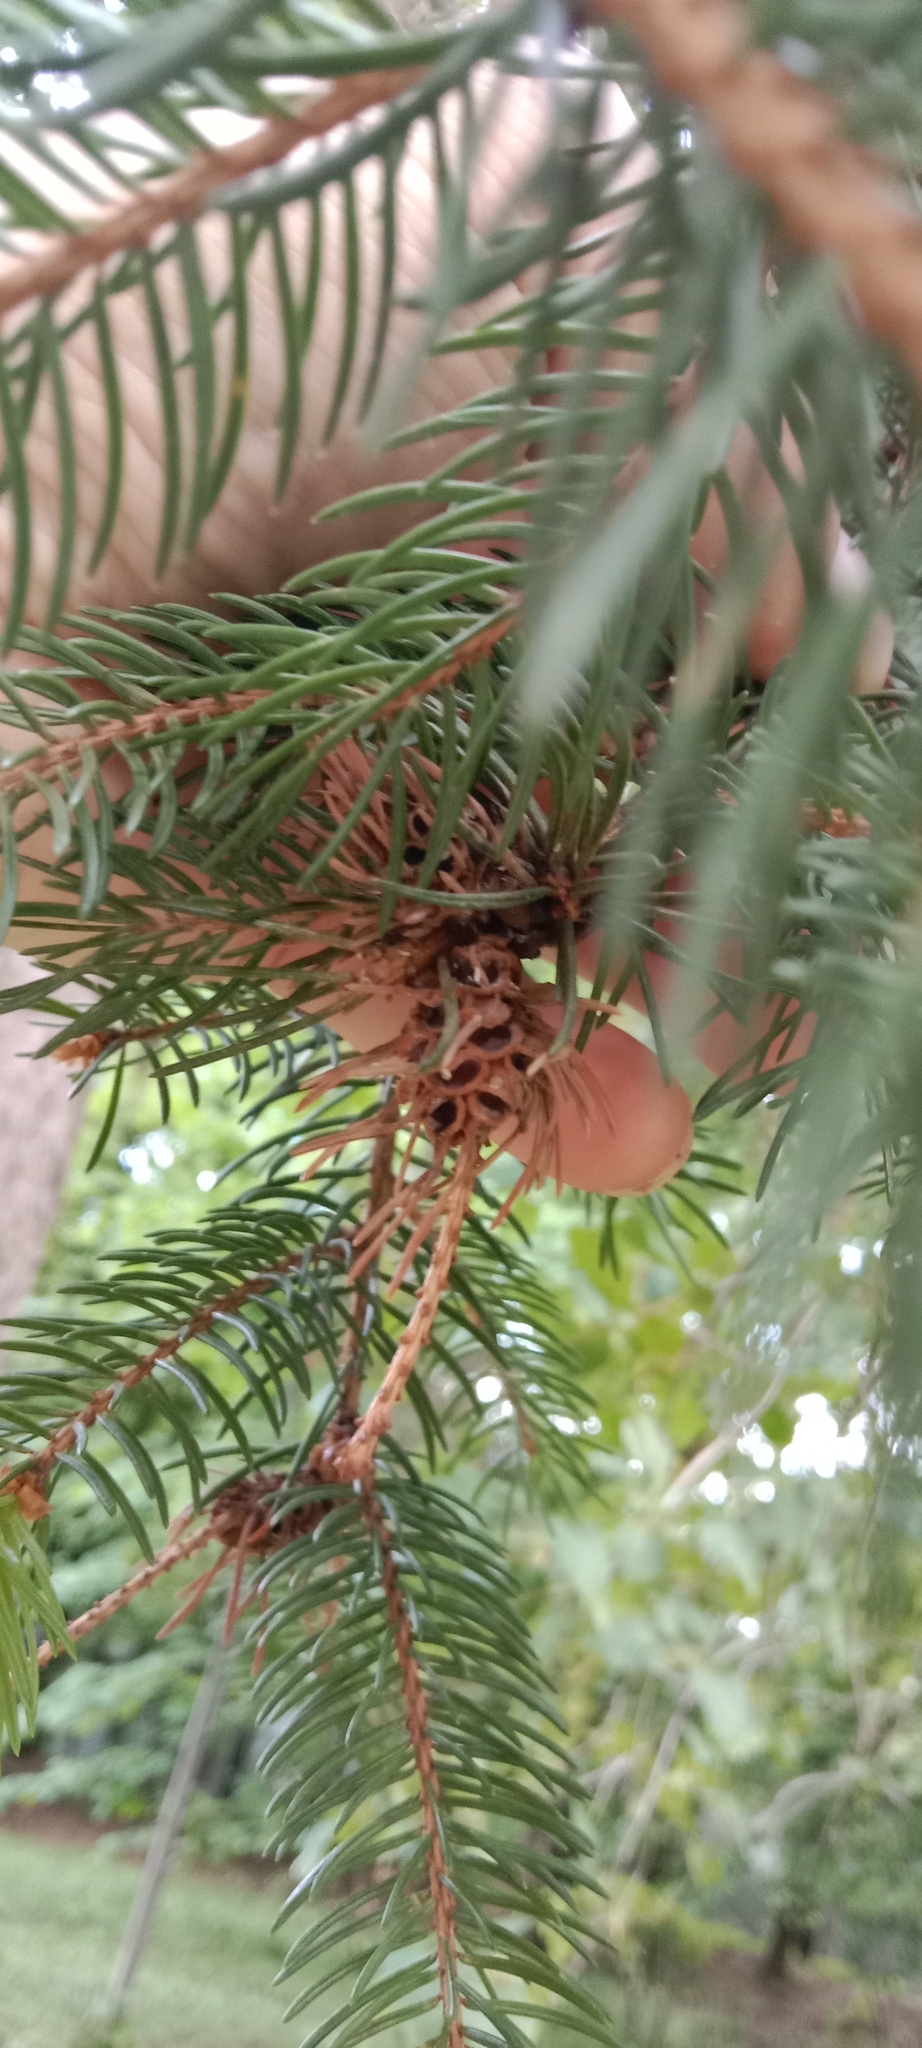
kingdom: Animalia
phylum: Arthropoda
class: Insecta
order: Hemiptera
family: Adelgidae
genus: Adelges
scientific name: Adelges abietis
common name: Eastern spruce gall adelgid
